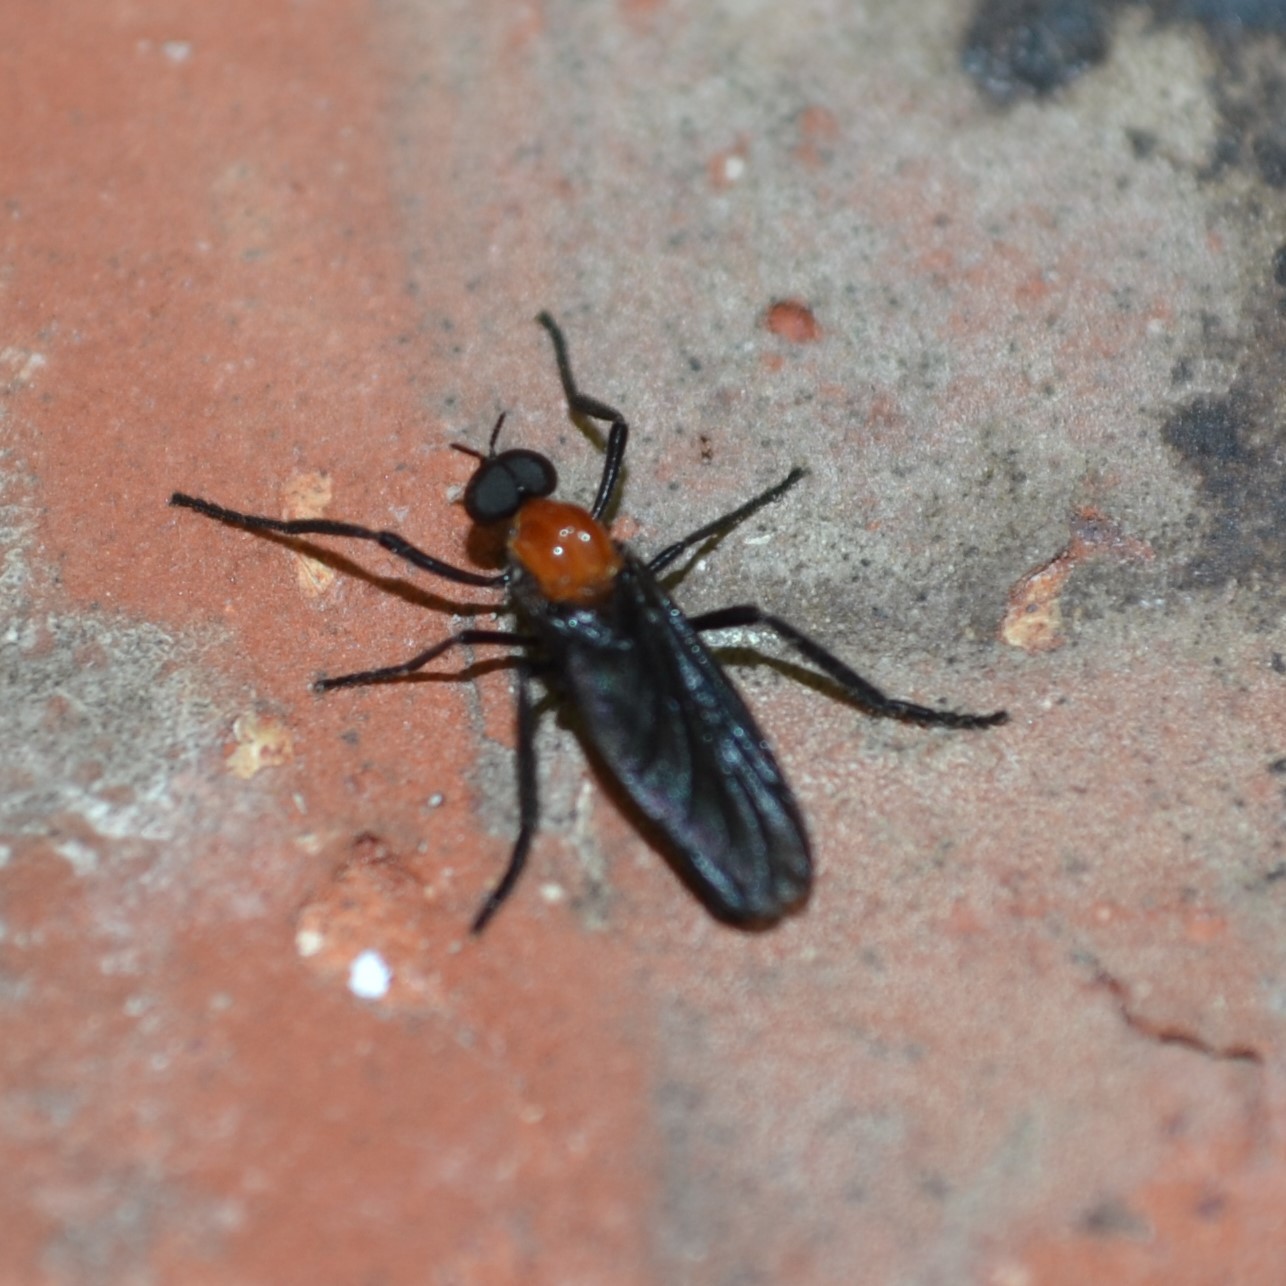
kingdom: Animalia
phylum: Arthropoda
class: Insecta
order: Diptera
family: Bibionidae
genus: Plecia
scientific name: Plecia nearctica
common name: March fly
